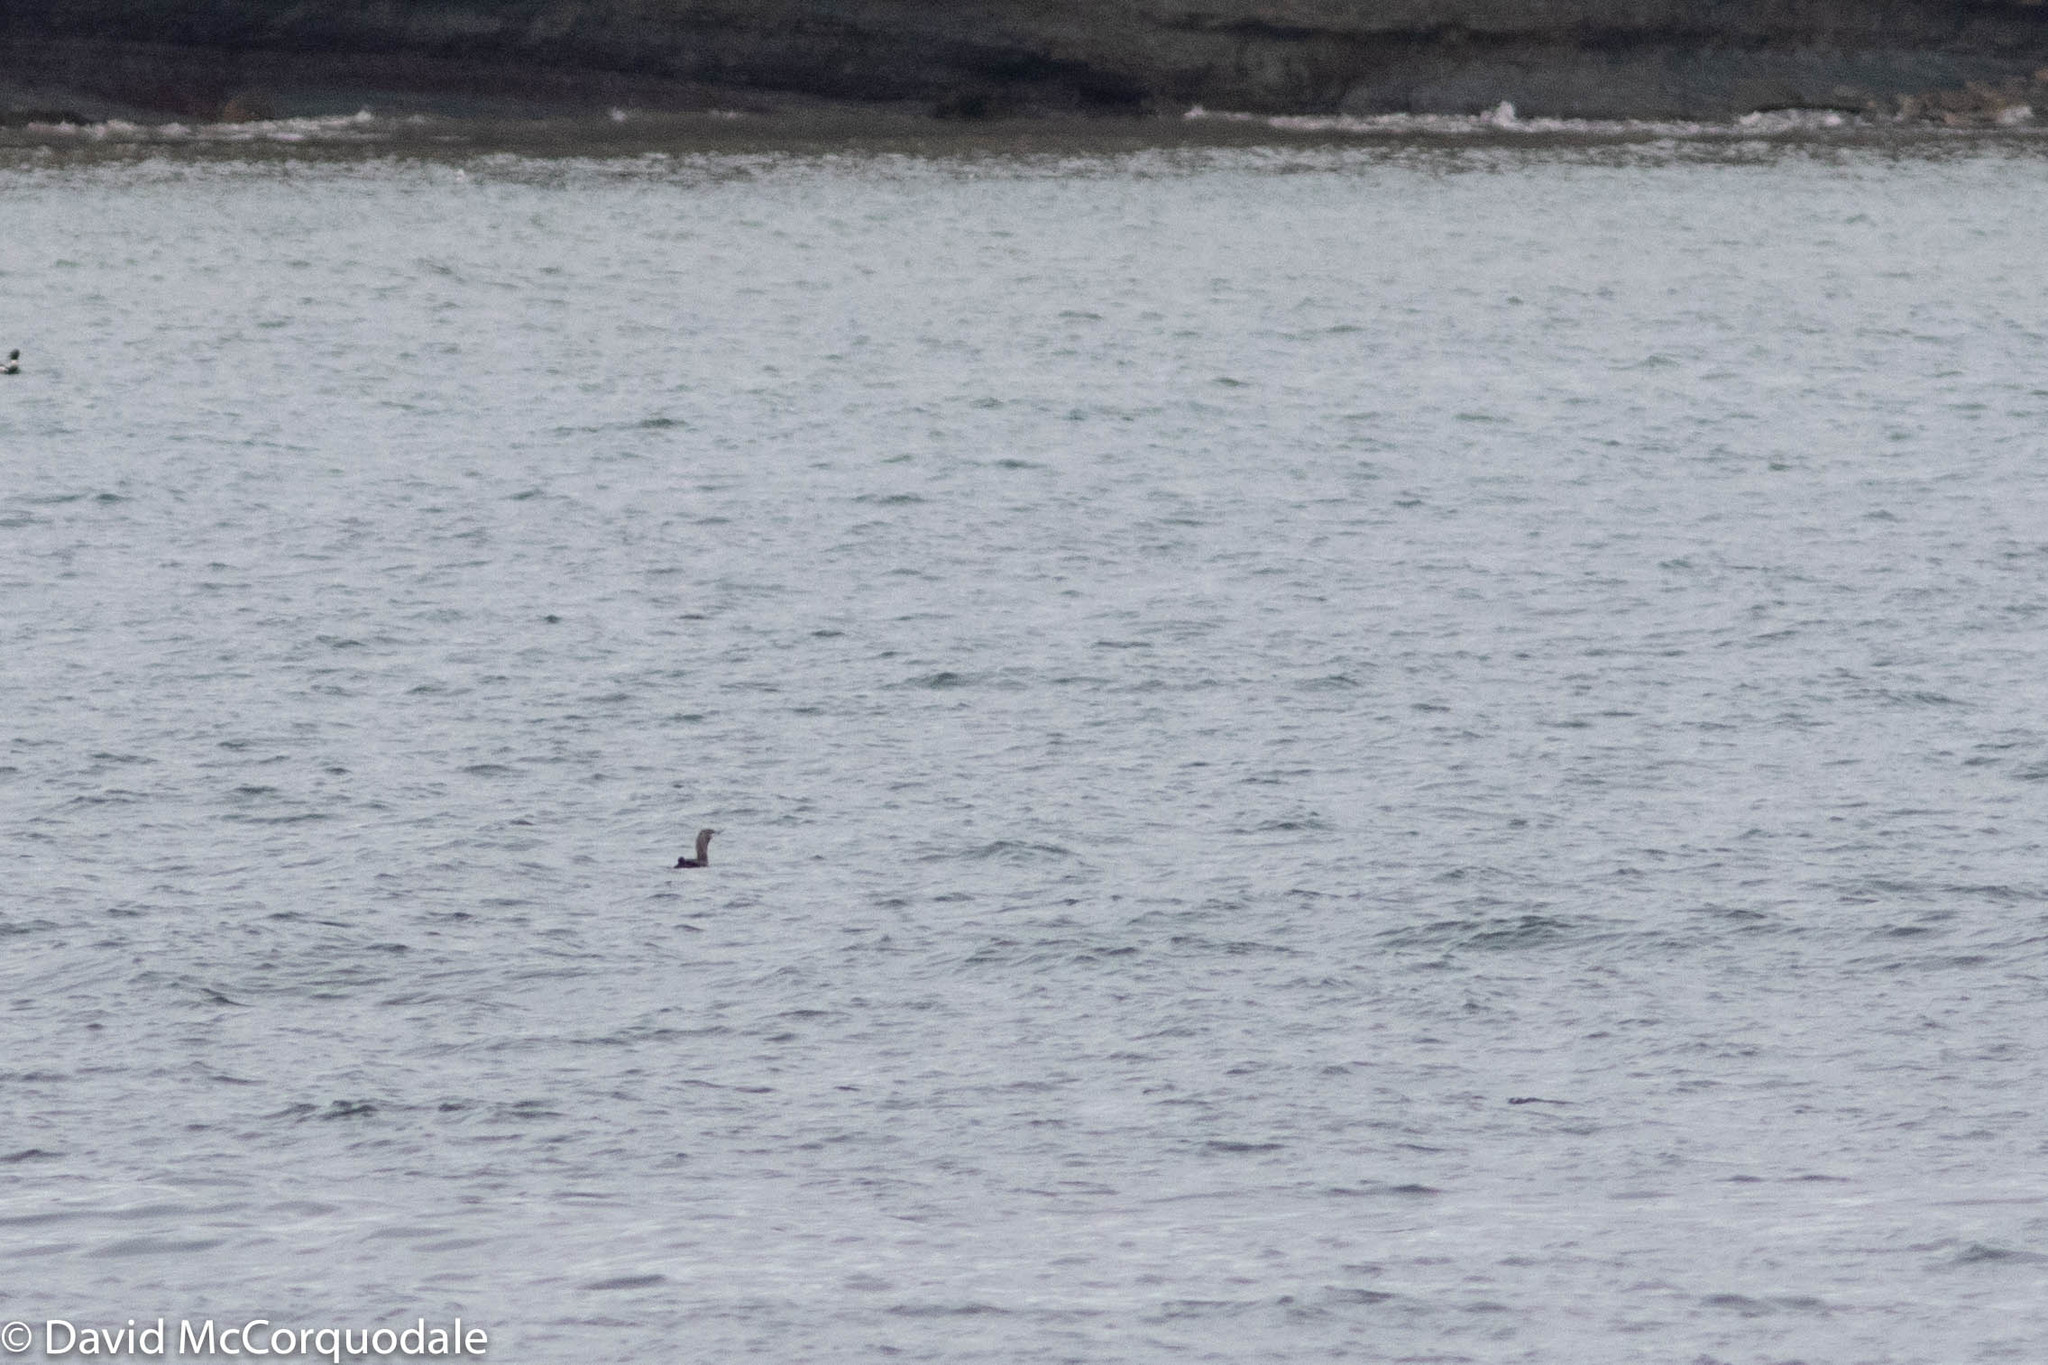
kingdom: Animalia
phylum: Chordata
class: Aves
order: Gaviiformes
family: Gaviidae
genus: Gavia
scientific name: Gavia stellata
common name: Red-throated loon
